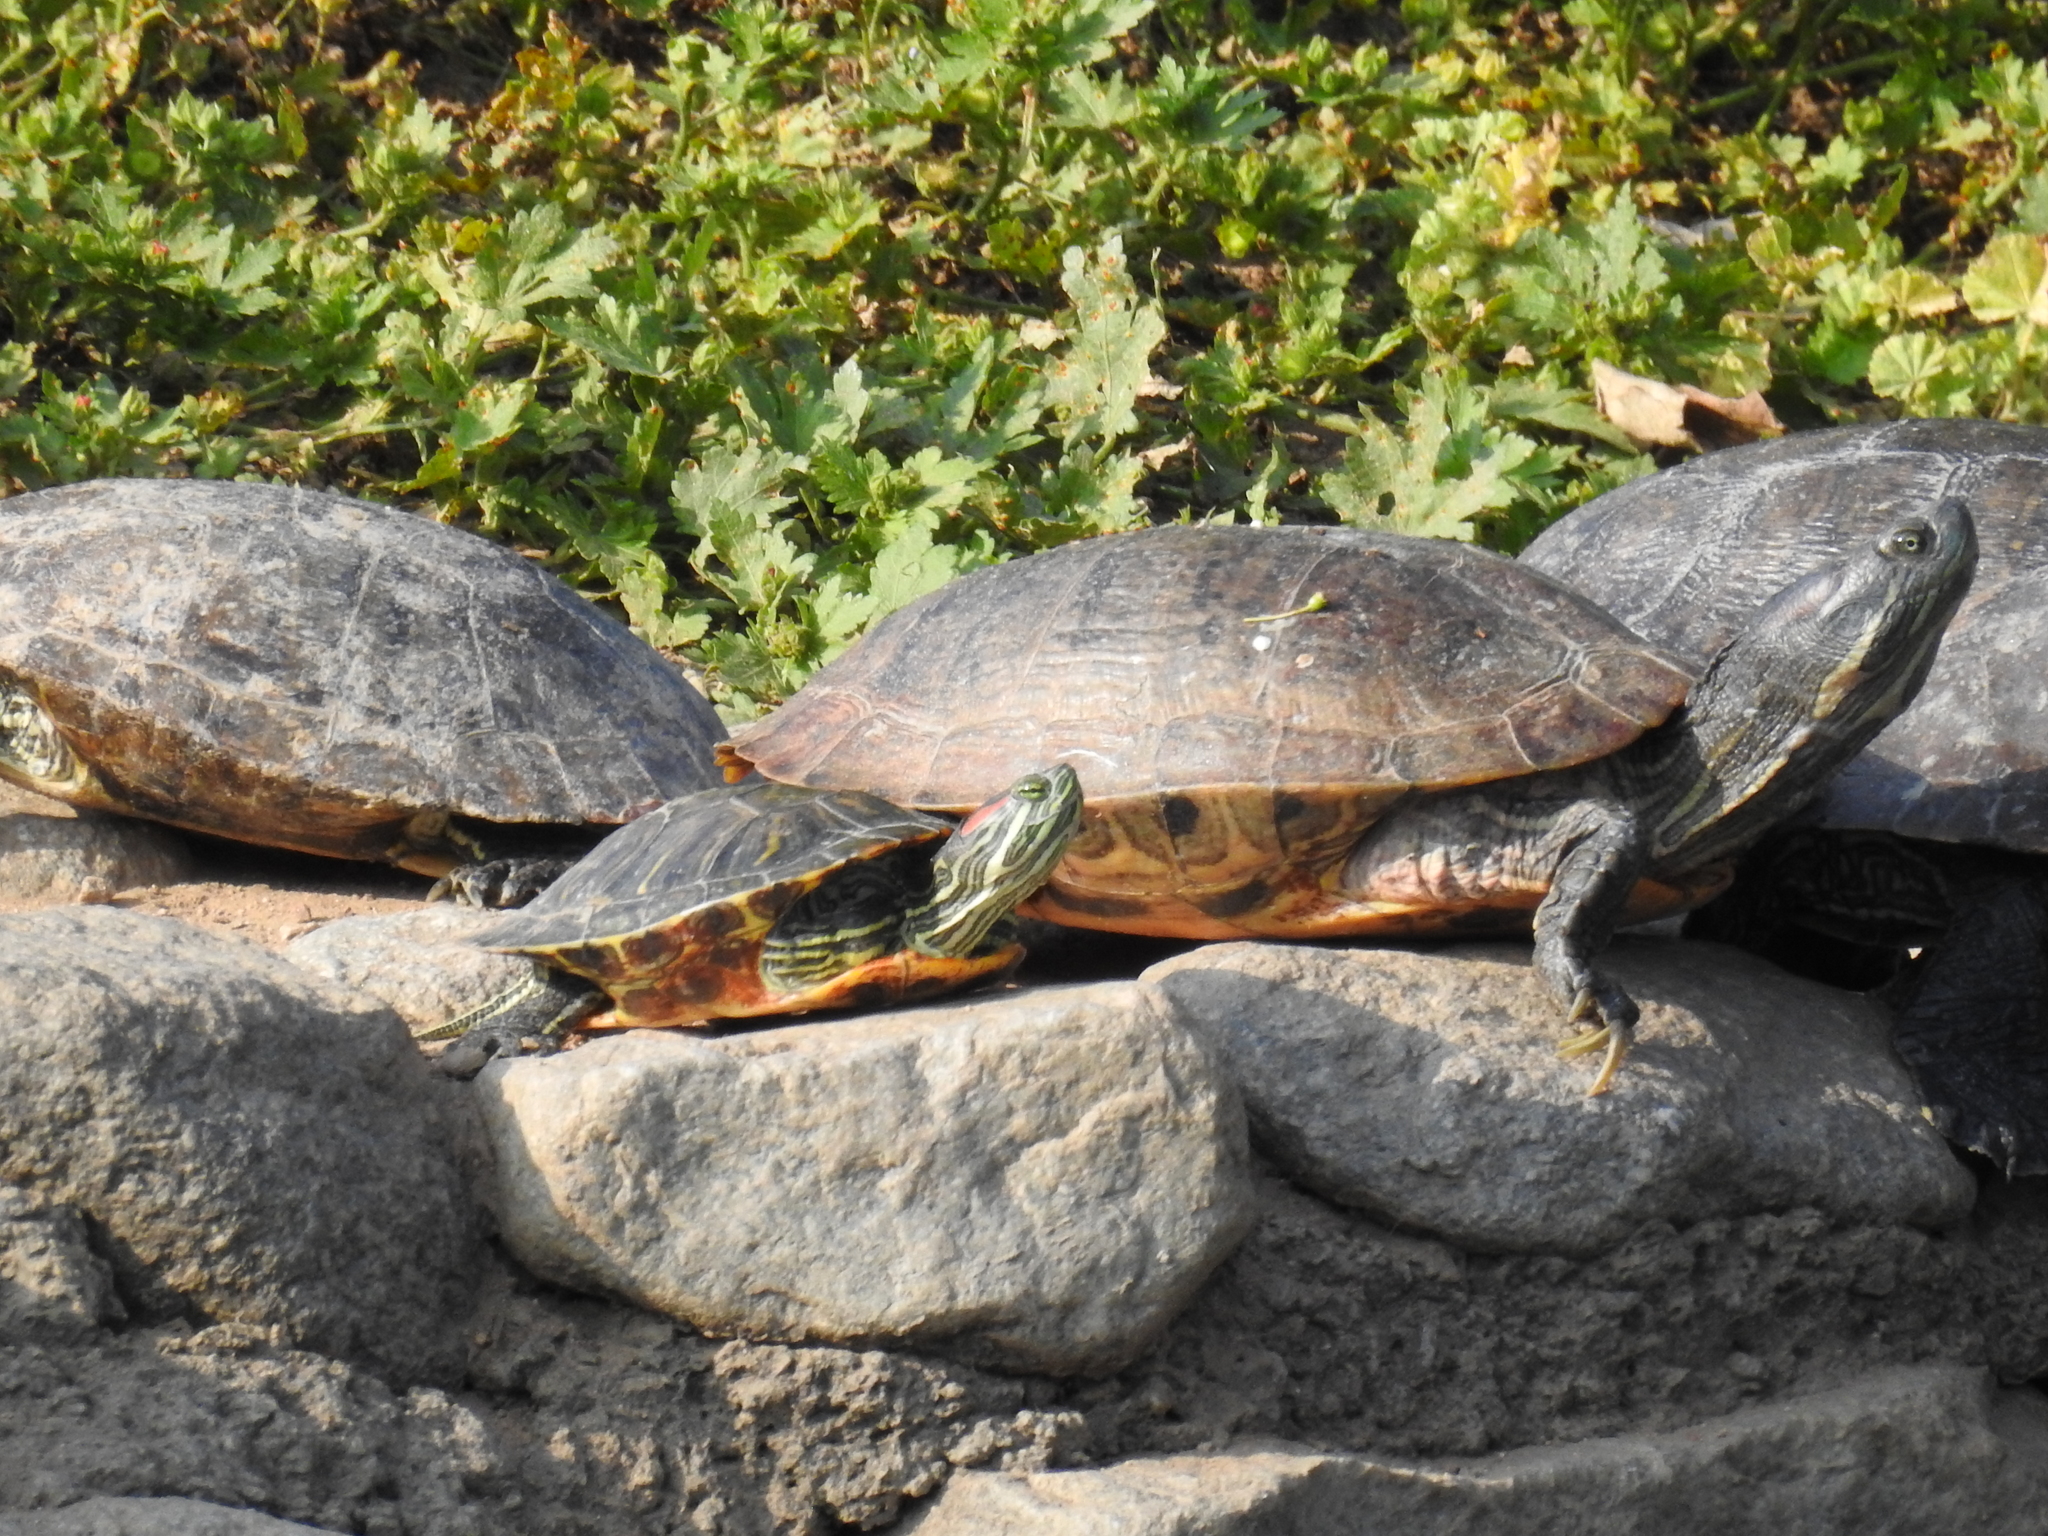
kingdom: Animalia
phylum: Chordata
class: Testudines
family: Emydidae
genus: Trachemys
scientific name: Trachemys scripta
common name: Slider
